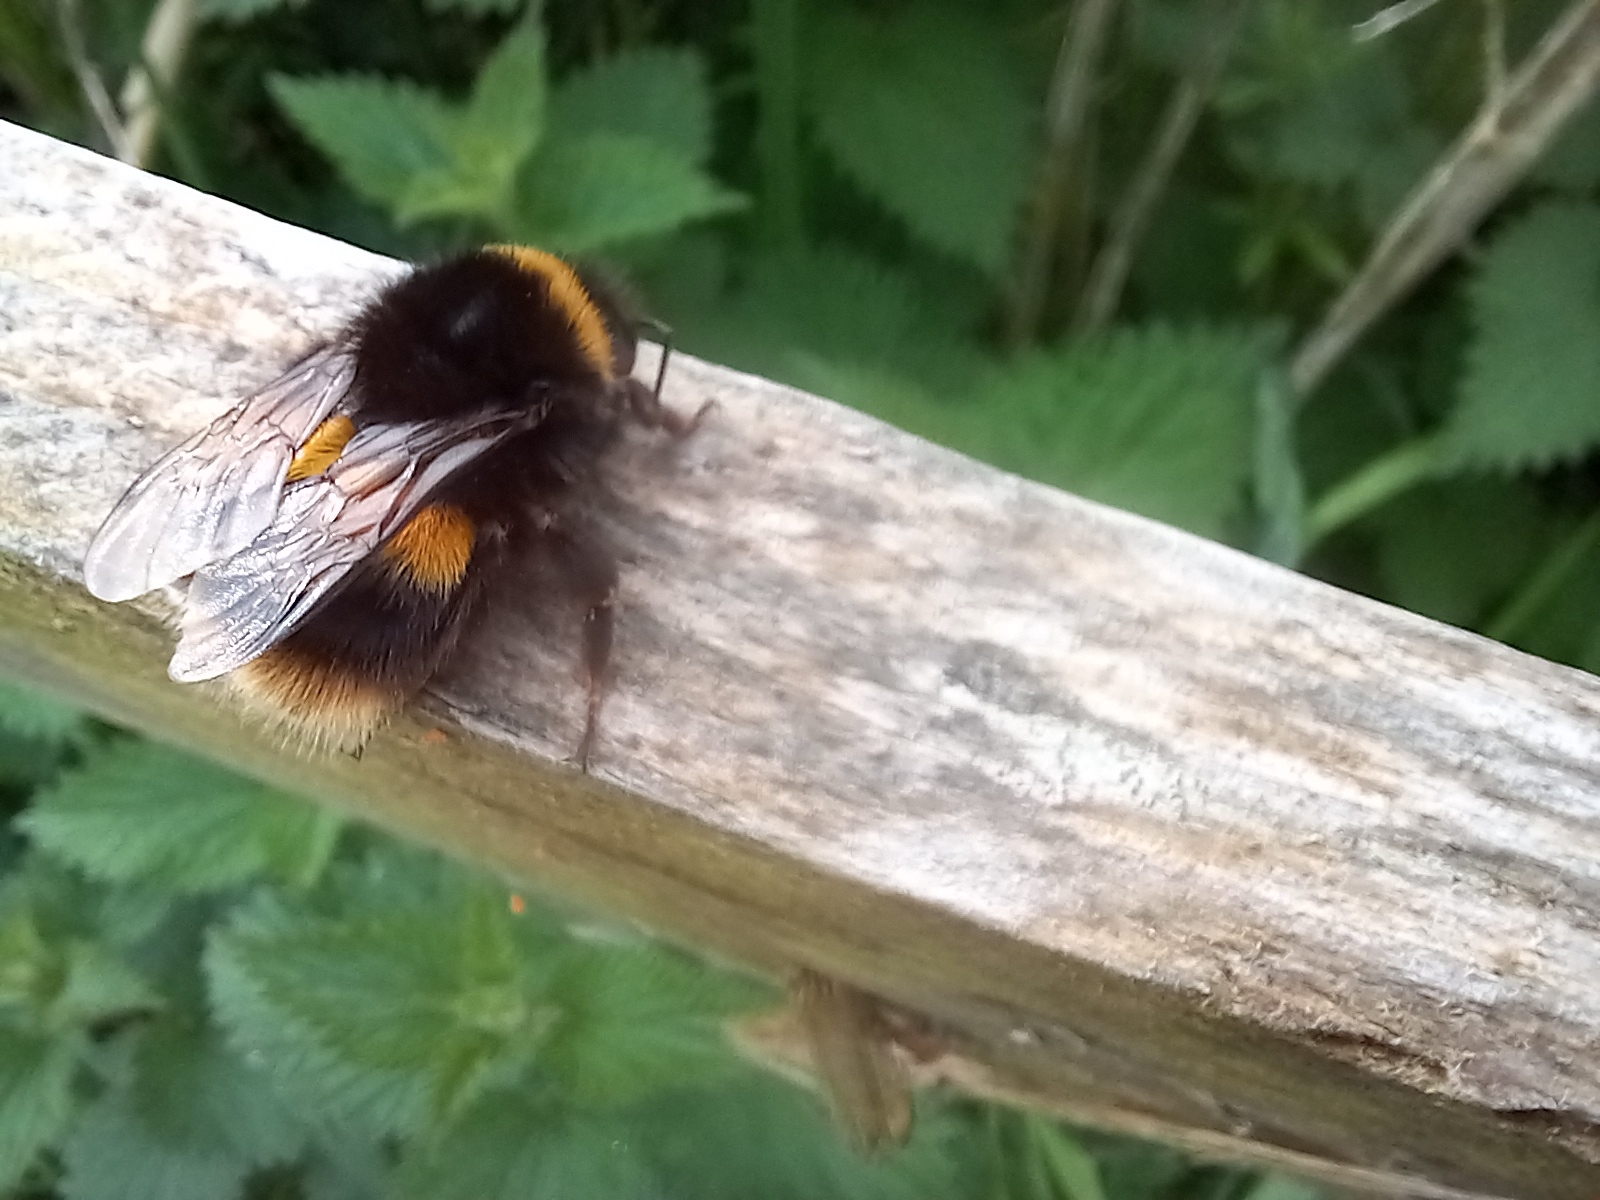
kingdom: Animalia
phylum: Arthropoda
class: Insecta
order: Hymenoptera
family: Apidae
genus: Bombus
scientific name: Bombus terrestris
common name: Buff-tailed bumblebee
